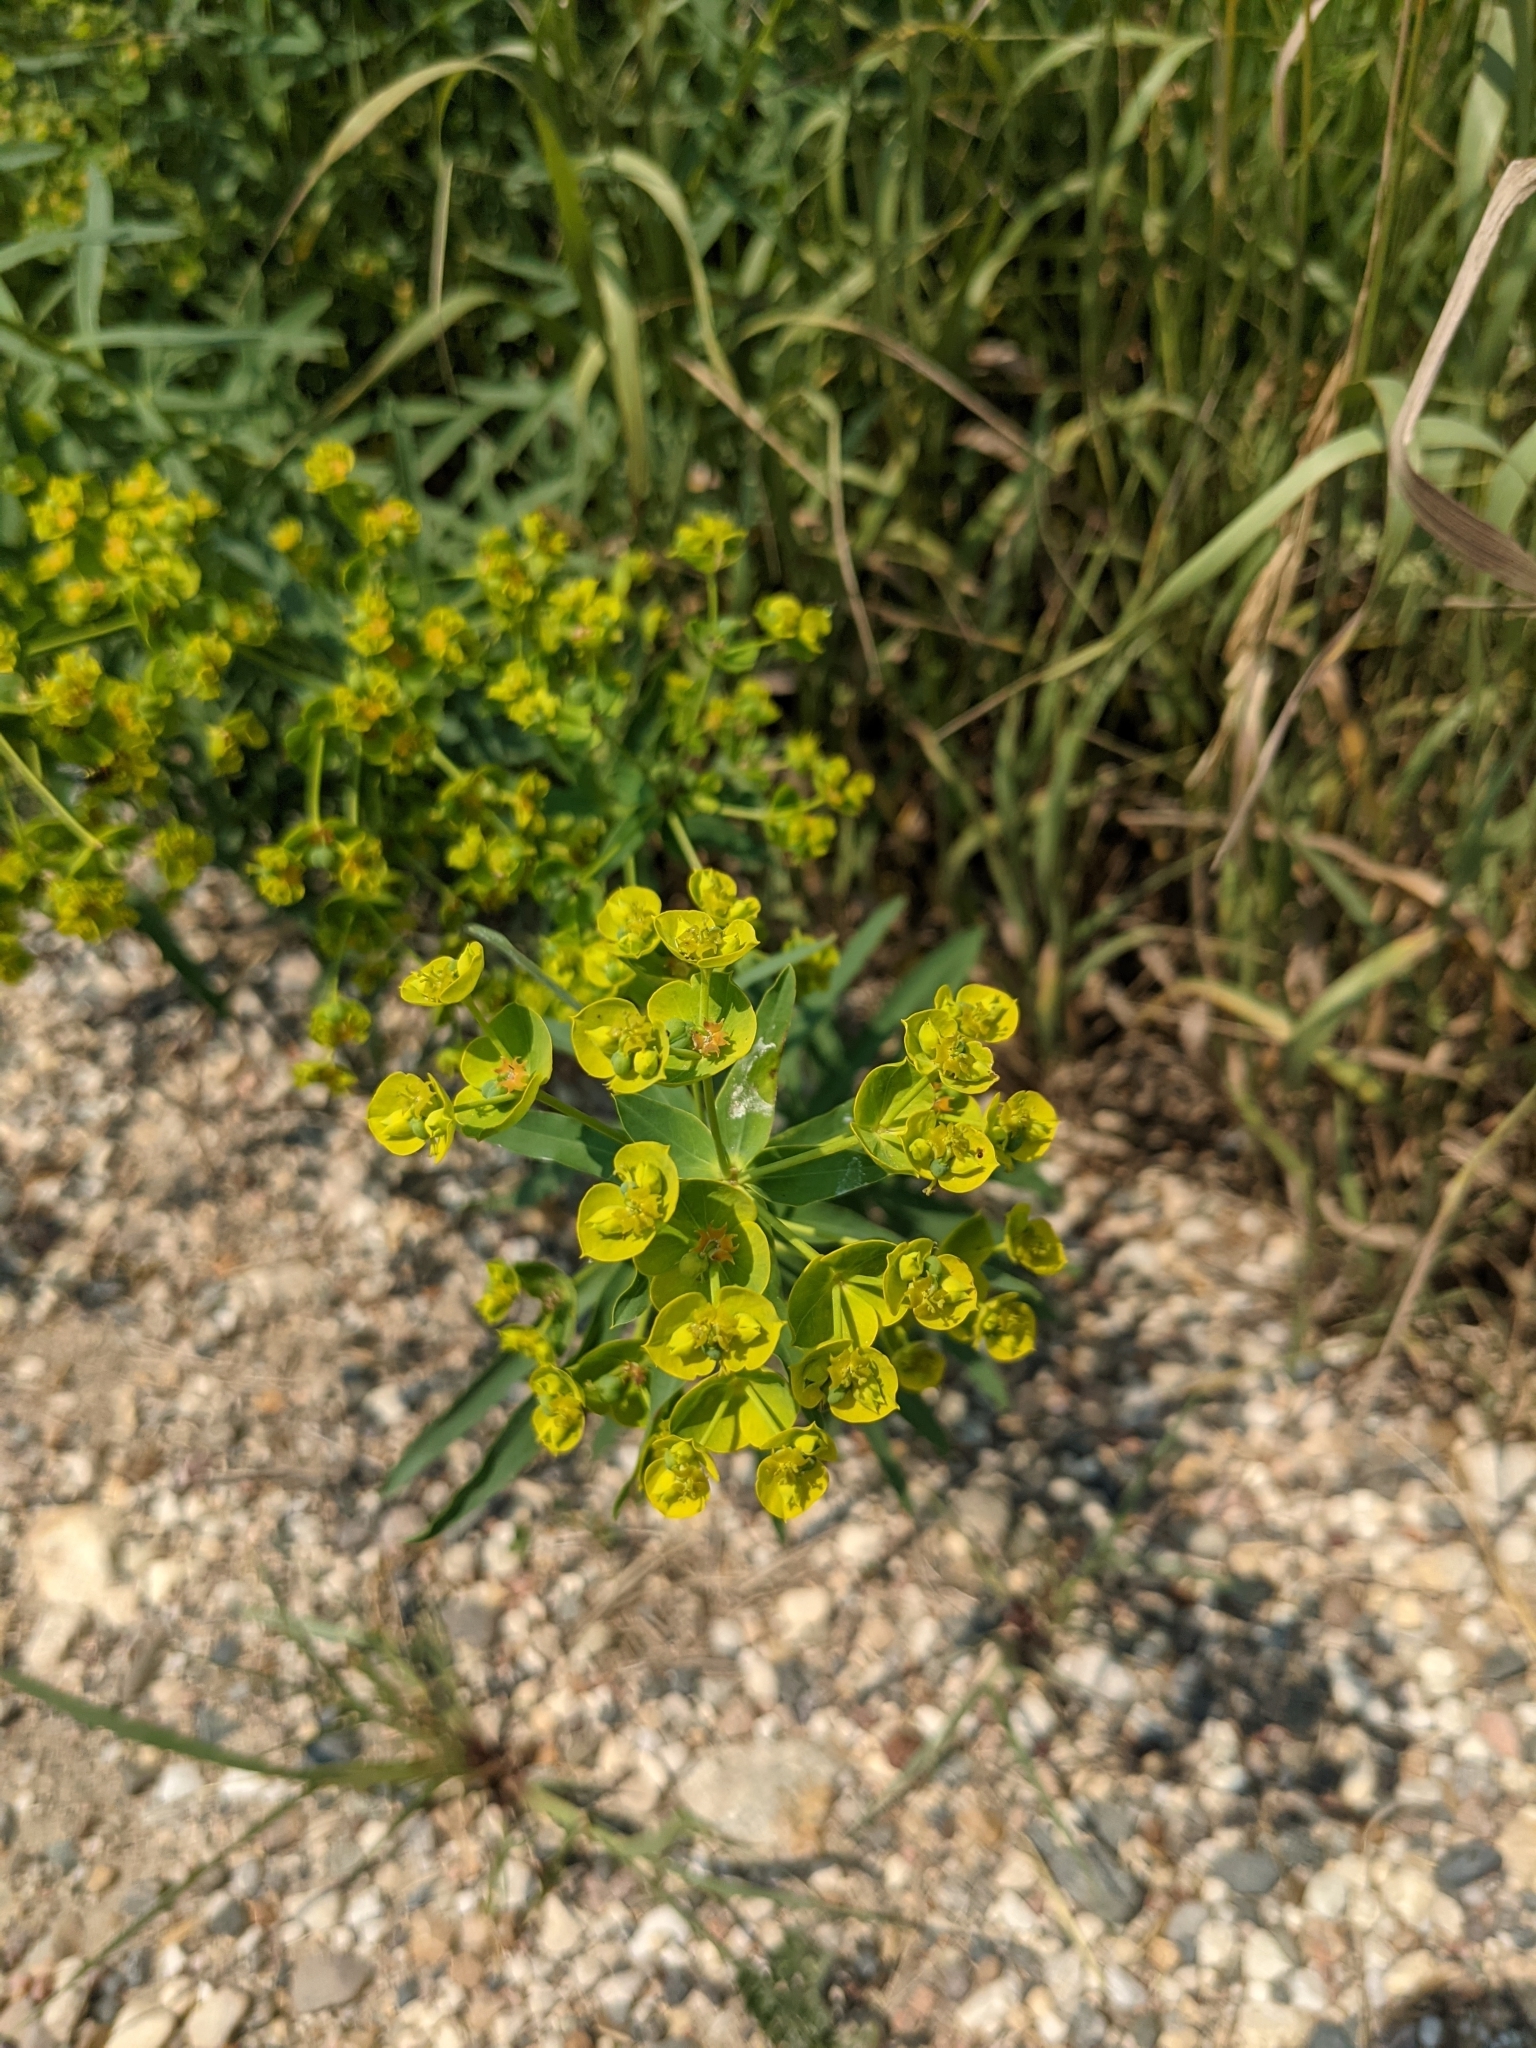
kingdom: Plantae
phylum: Tracheophyta
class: Magnoliopsida
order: Malpighiales
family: Euphorbiaceae
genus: Euphorbia
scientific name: Euphorbia virgata
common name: Leafy spurge
